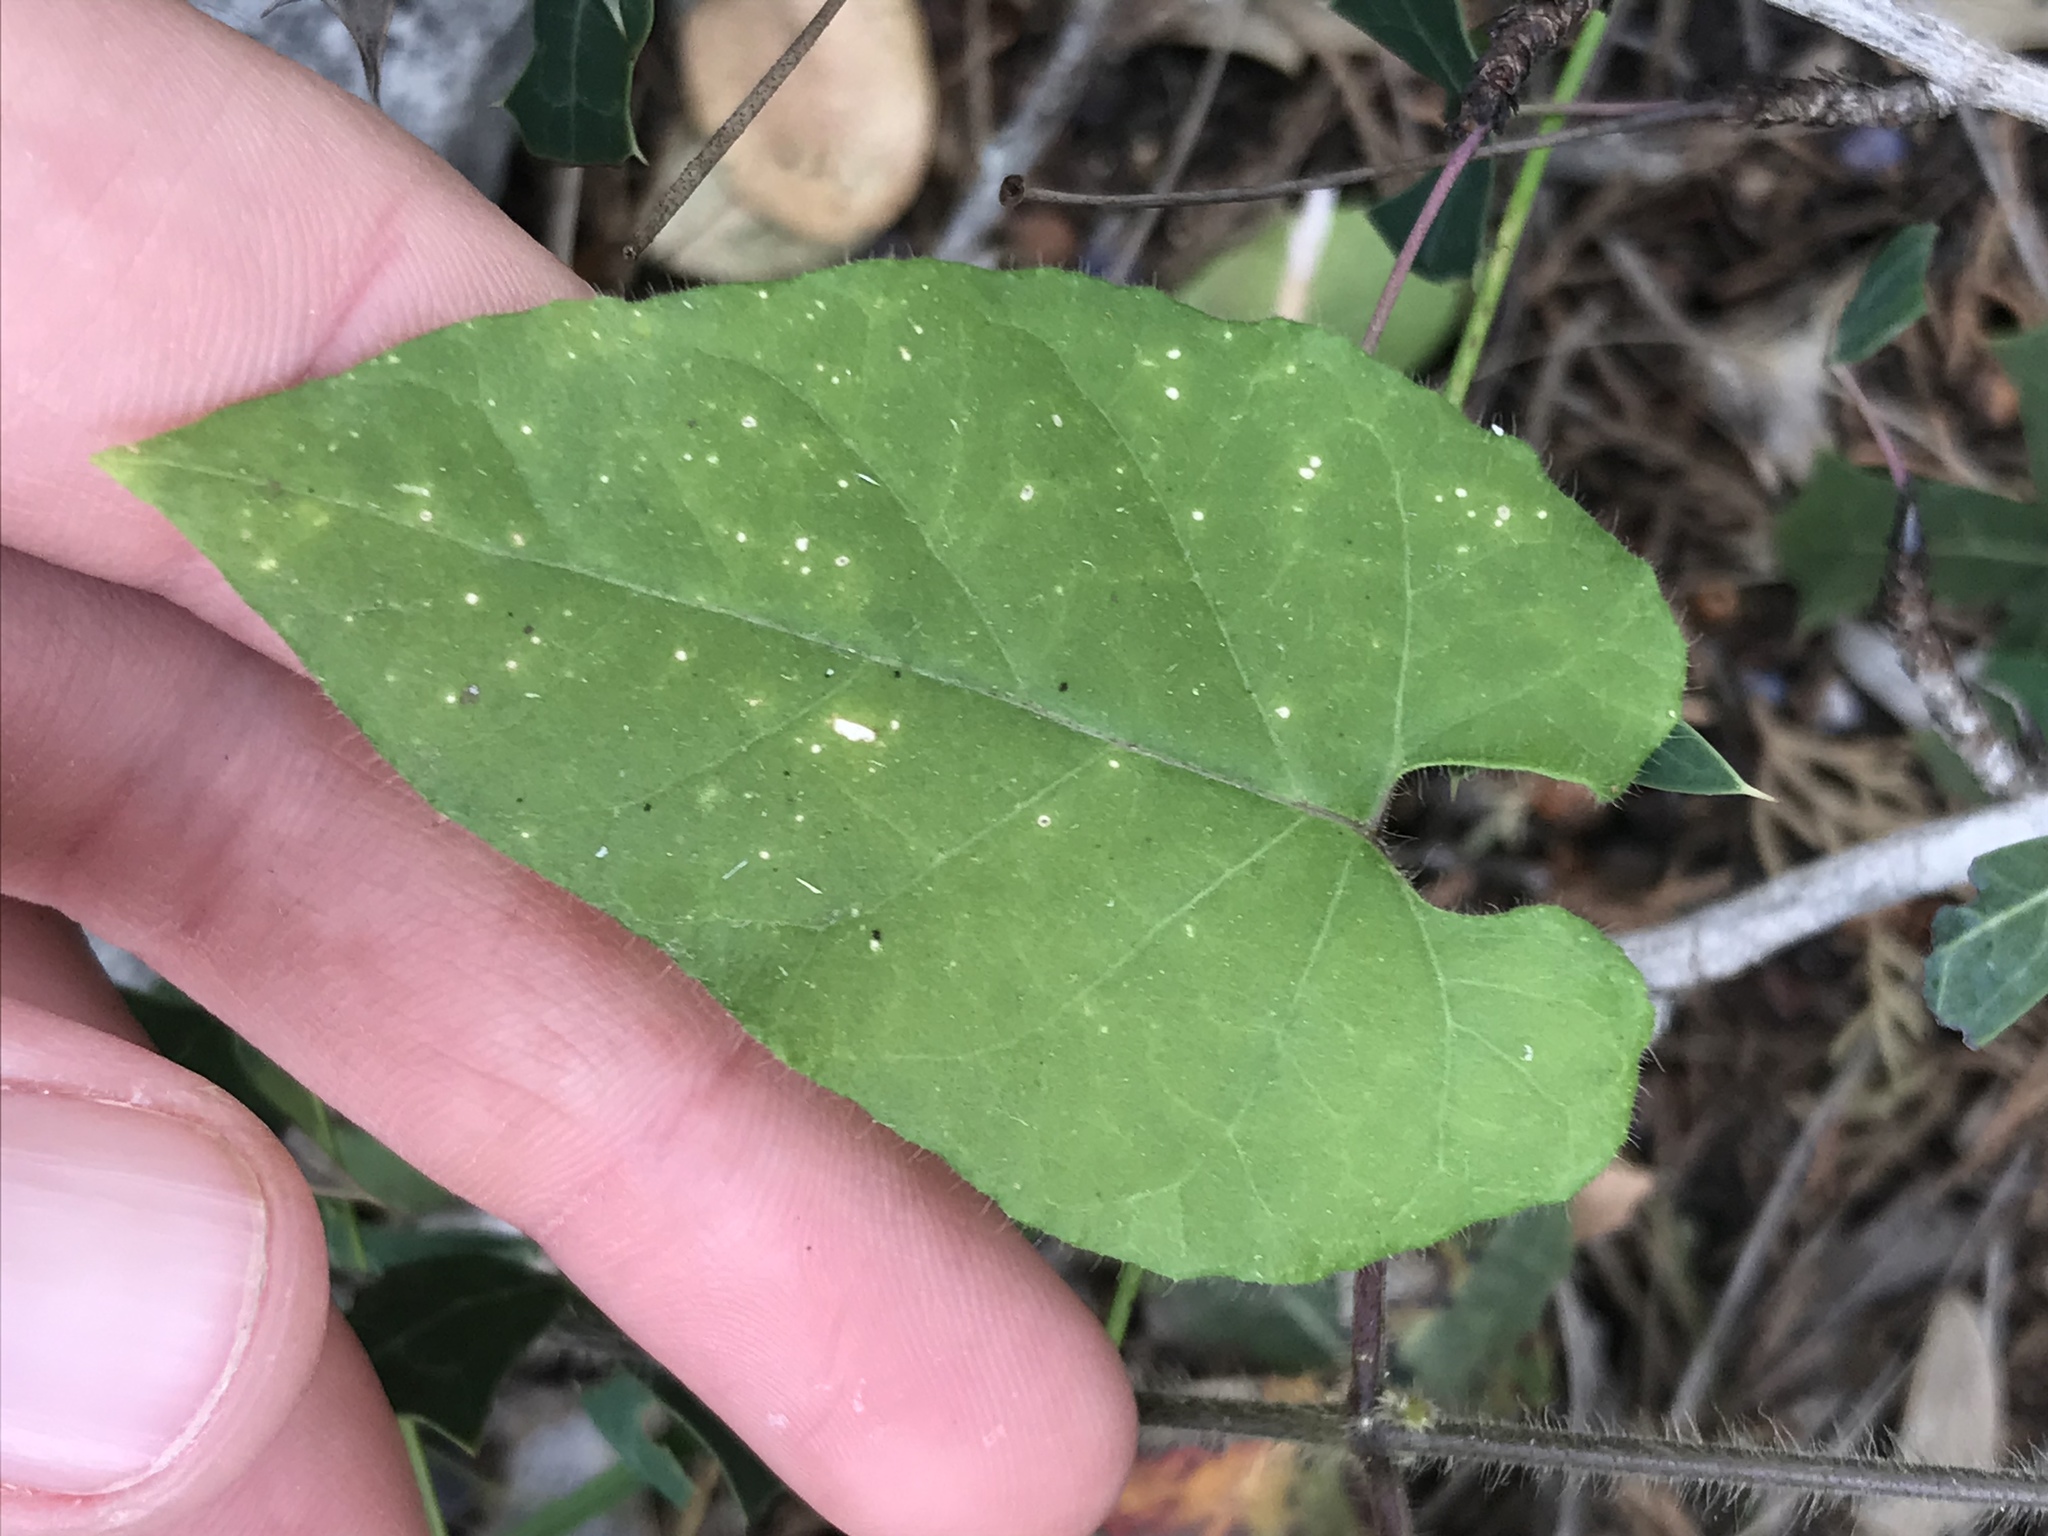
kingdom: Plantae
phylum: Tracheophyta
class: Magnoliopsida
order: Gentianales
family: Apocynaceae
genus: Dictyanthus
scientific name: Dictyanthus reticulatus
